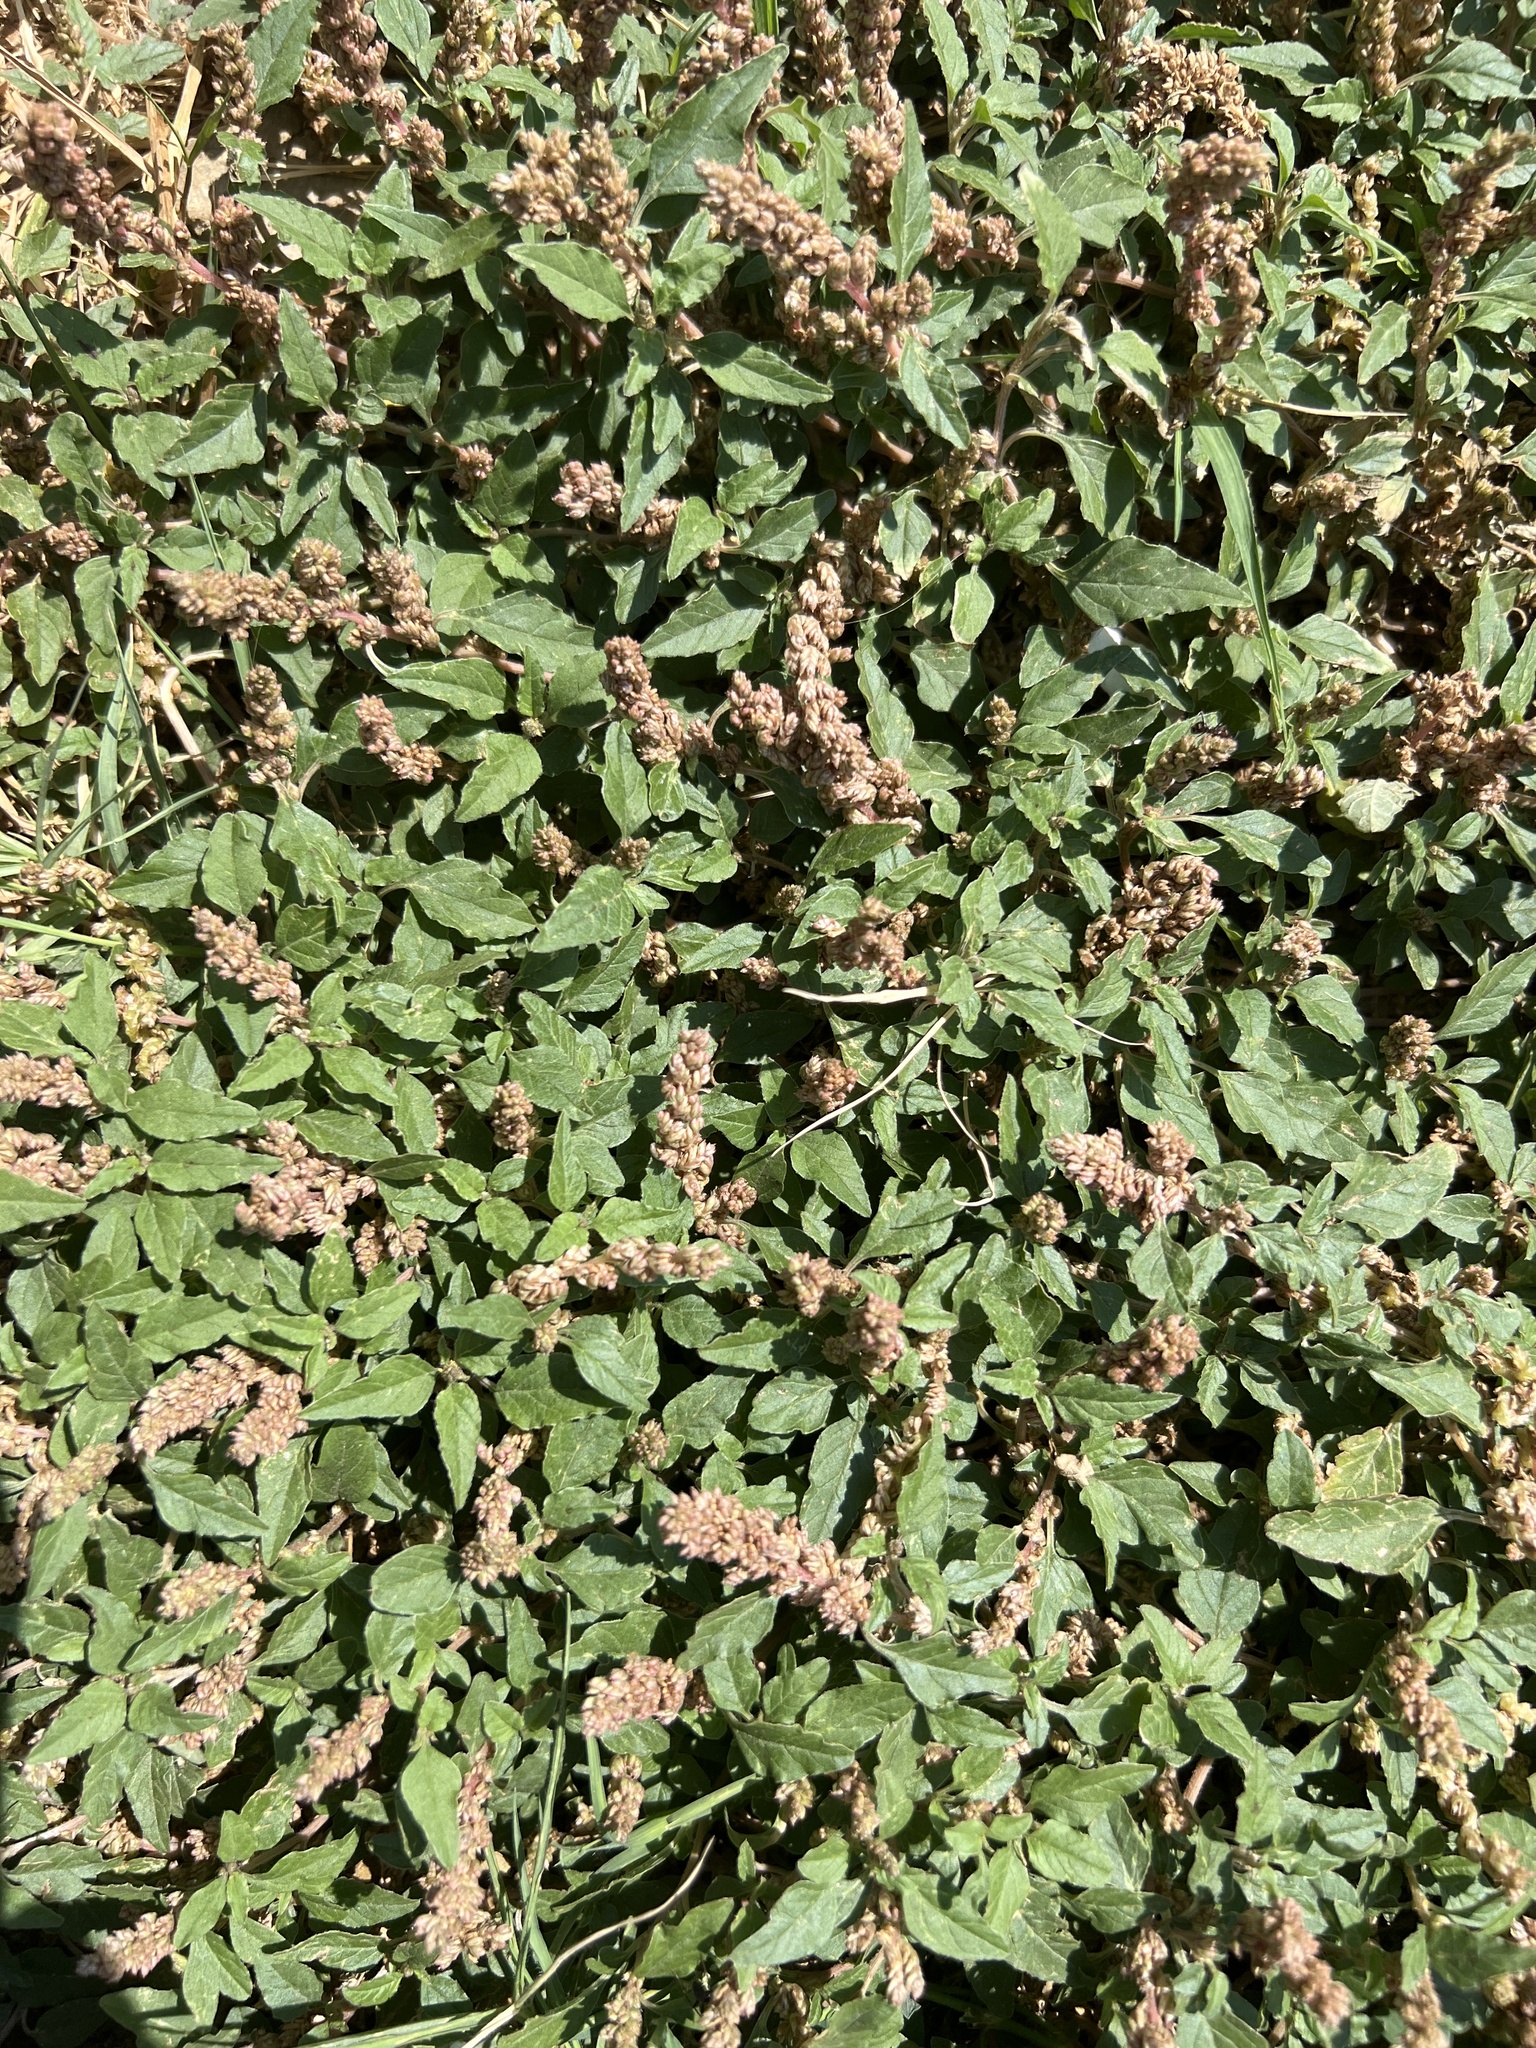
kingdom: Plantae
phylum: Tracheophyta
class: Magnoliopsida
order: Caryophyllales
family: Amaranthaceae
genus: Amaranthus
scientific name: Amaranthus deflexus
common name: Perennial pigweed
